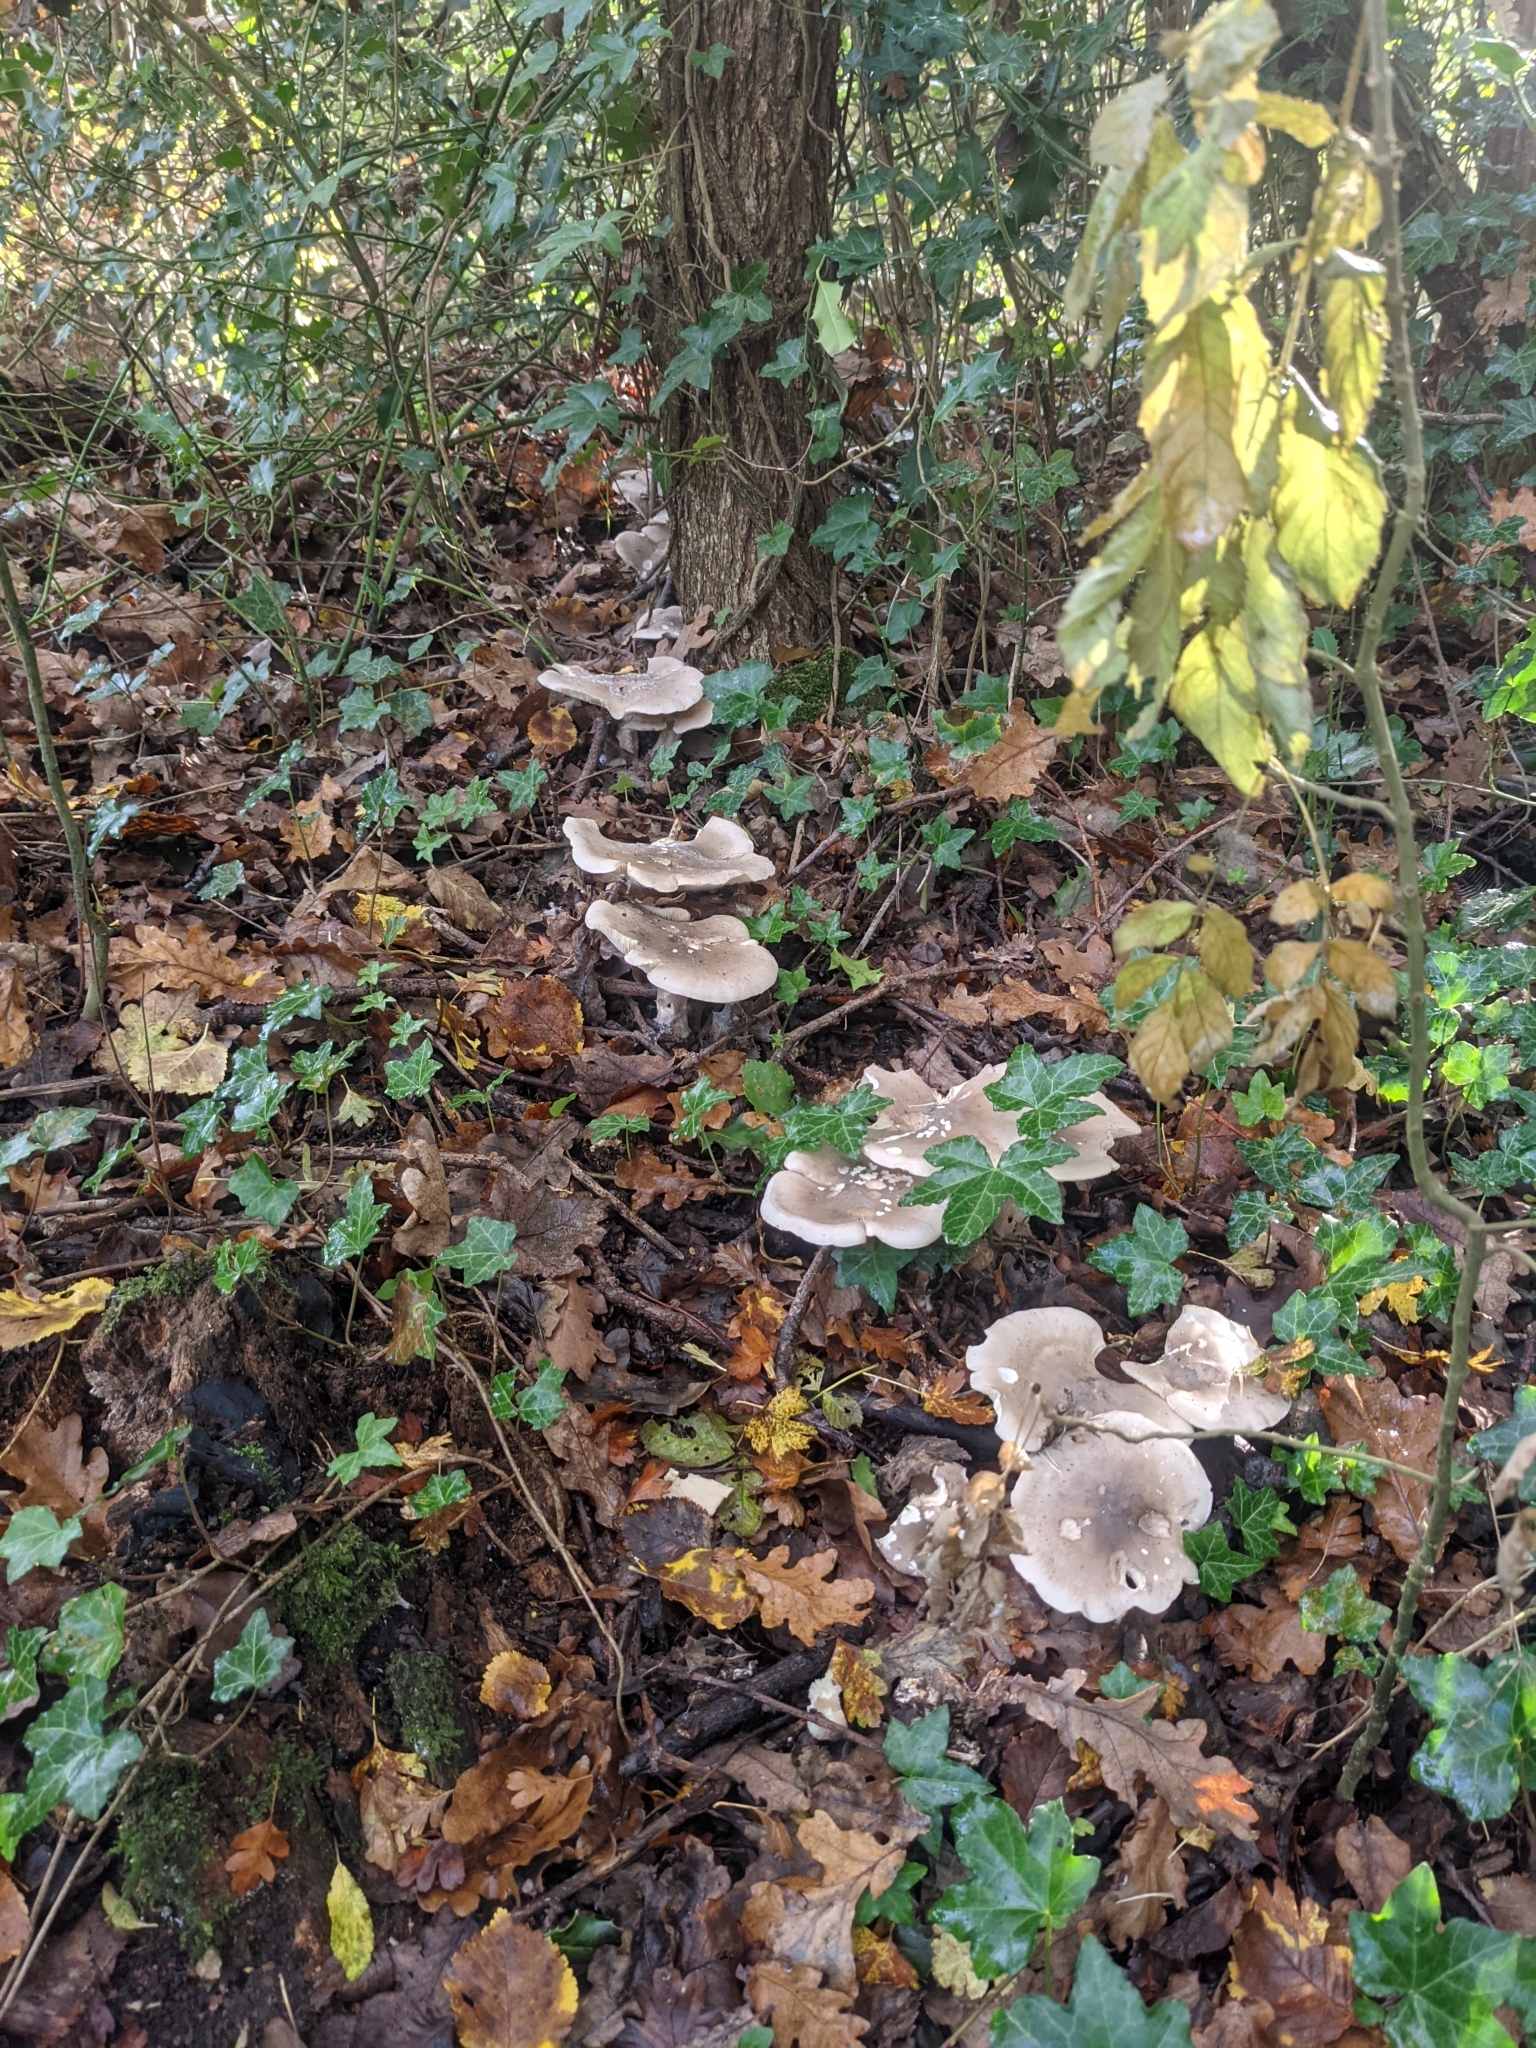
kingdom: Fungi
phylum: Basidiomycota
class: Agaricomycetes
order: Agaricales
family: Tricholomataceae
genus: Clitocybe
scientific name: Clitocybe nebularis
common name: Clouded agaric
